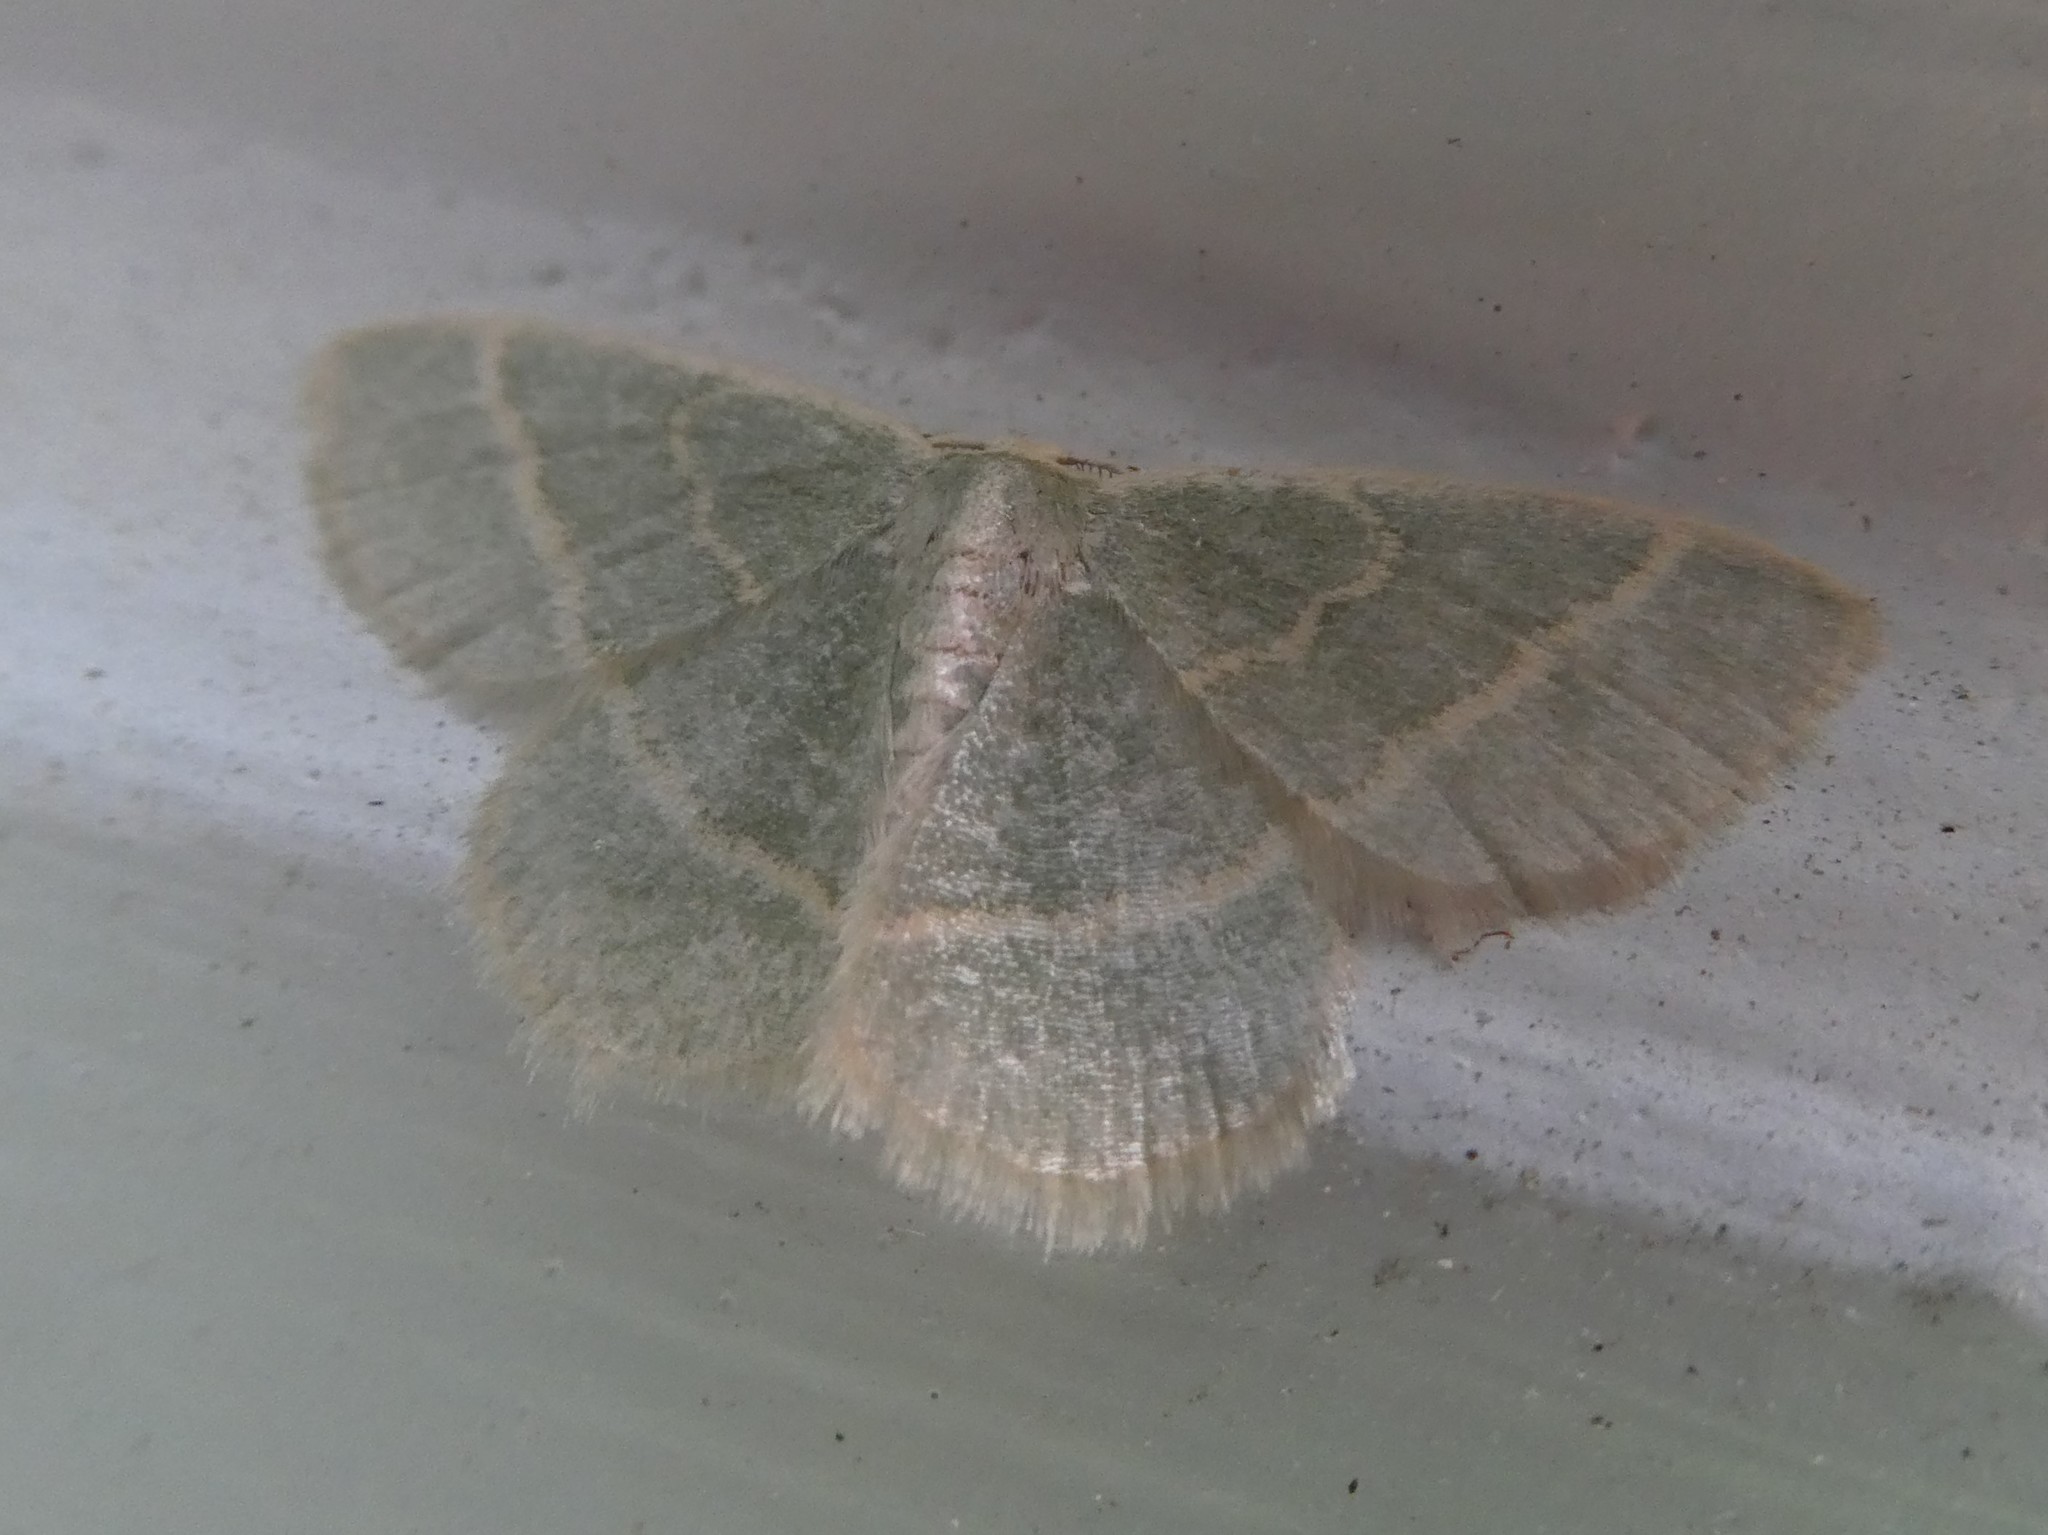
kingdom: Animalia
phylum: Arthropoda
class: Insecta
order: Lepidoptera
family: Geometridae
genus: Chlorochlamys
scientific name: Chlorochlamys chloroleucaria
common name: Blackberry looper
